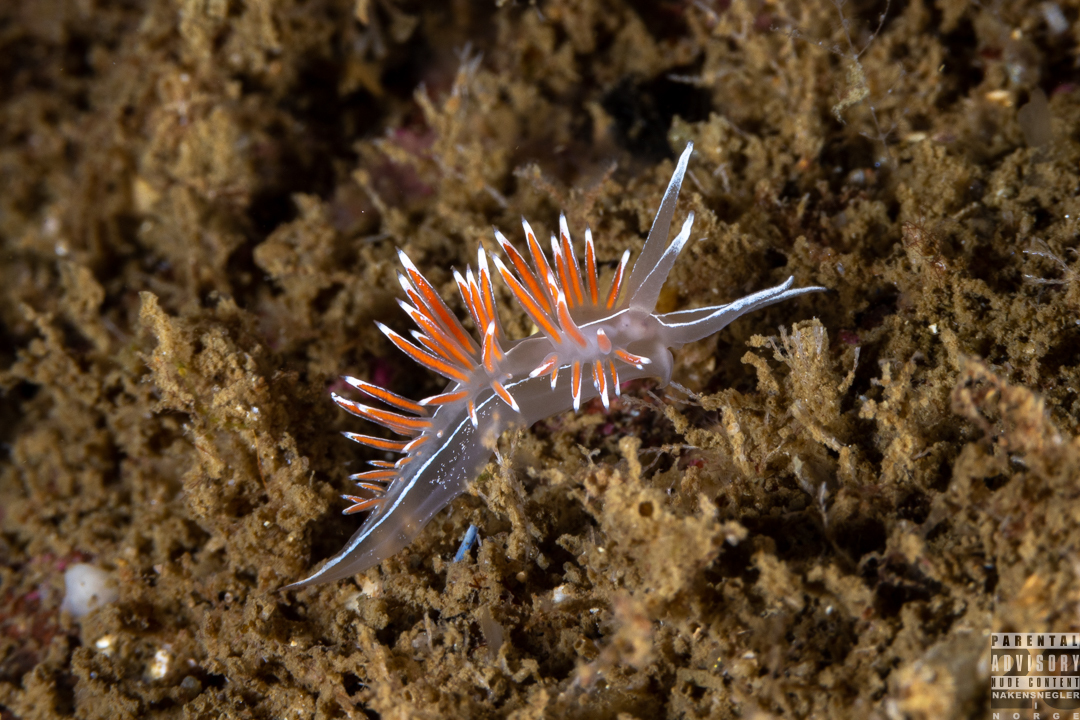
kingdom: Animalia
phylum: Mollusca
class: Gastropoda
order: Nudibranchia
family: Coryphellidae
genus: Coryphella
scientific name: Coryphella lineata
